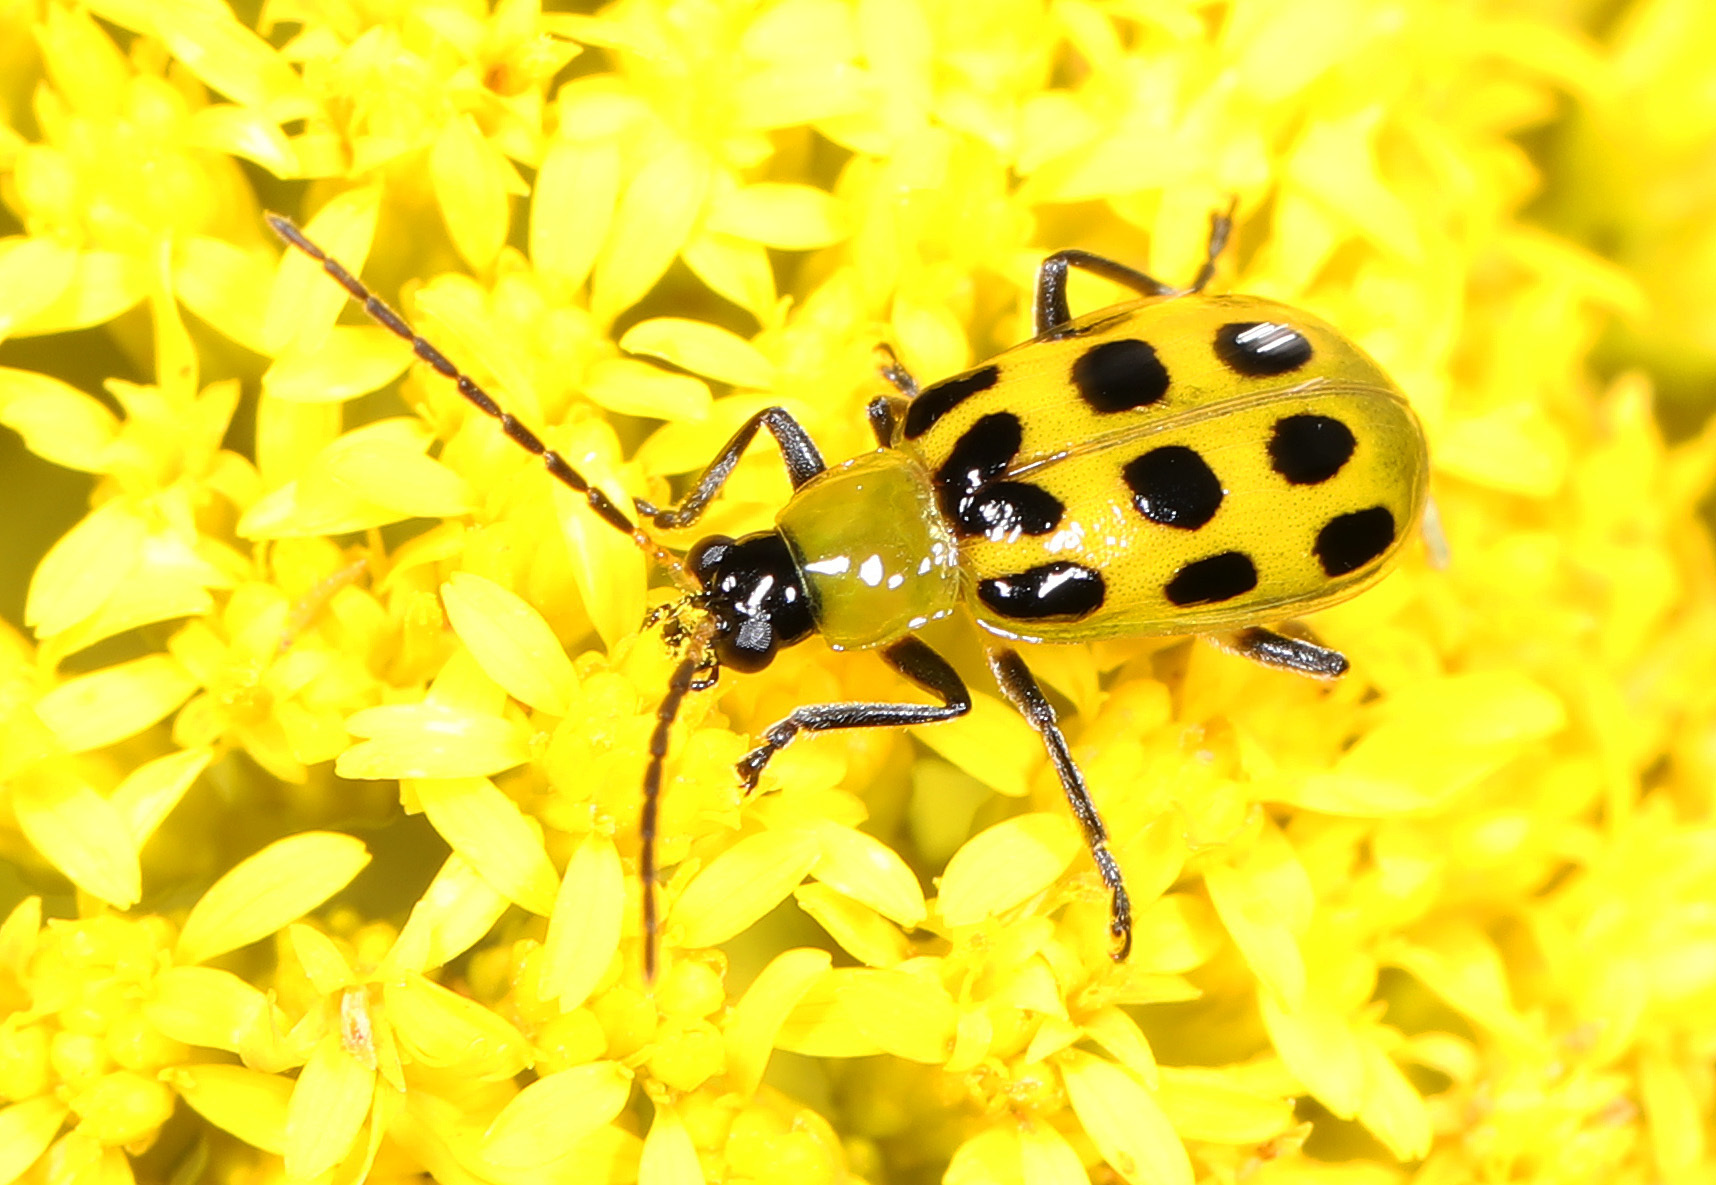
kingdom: Animalia
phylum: Arthropoda
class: Insecta
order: Coleoptera
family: Chrysomelidae
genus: Diabrotica
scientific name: Diabrotica undecimpunctata
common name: Spotted cucumber beetle
